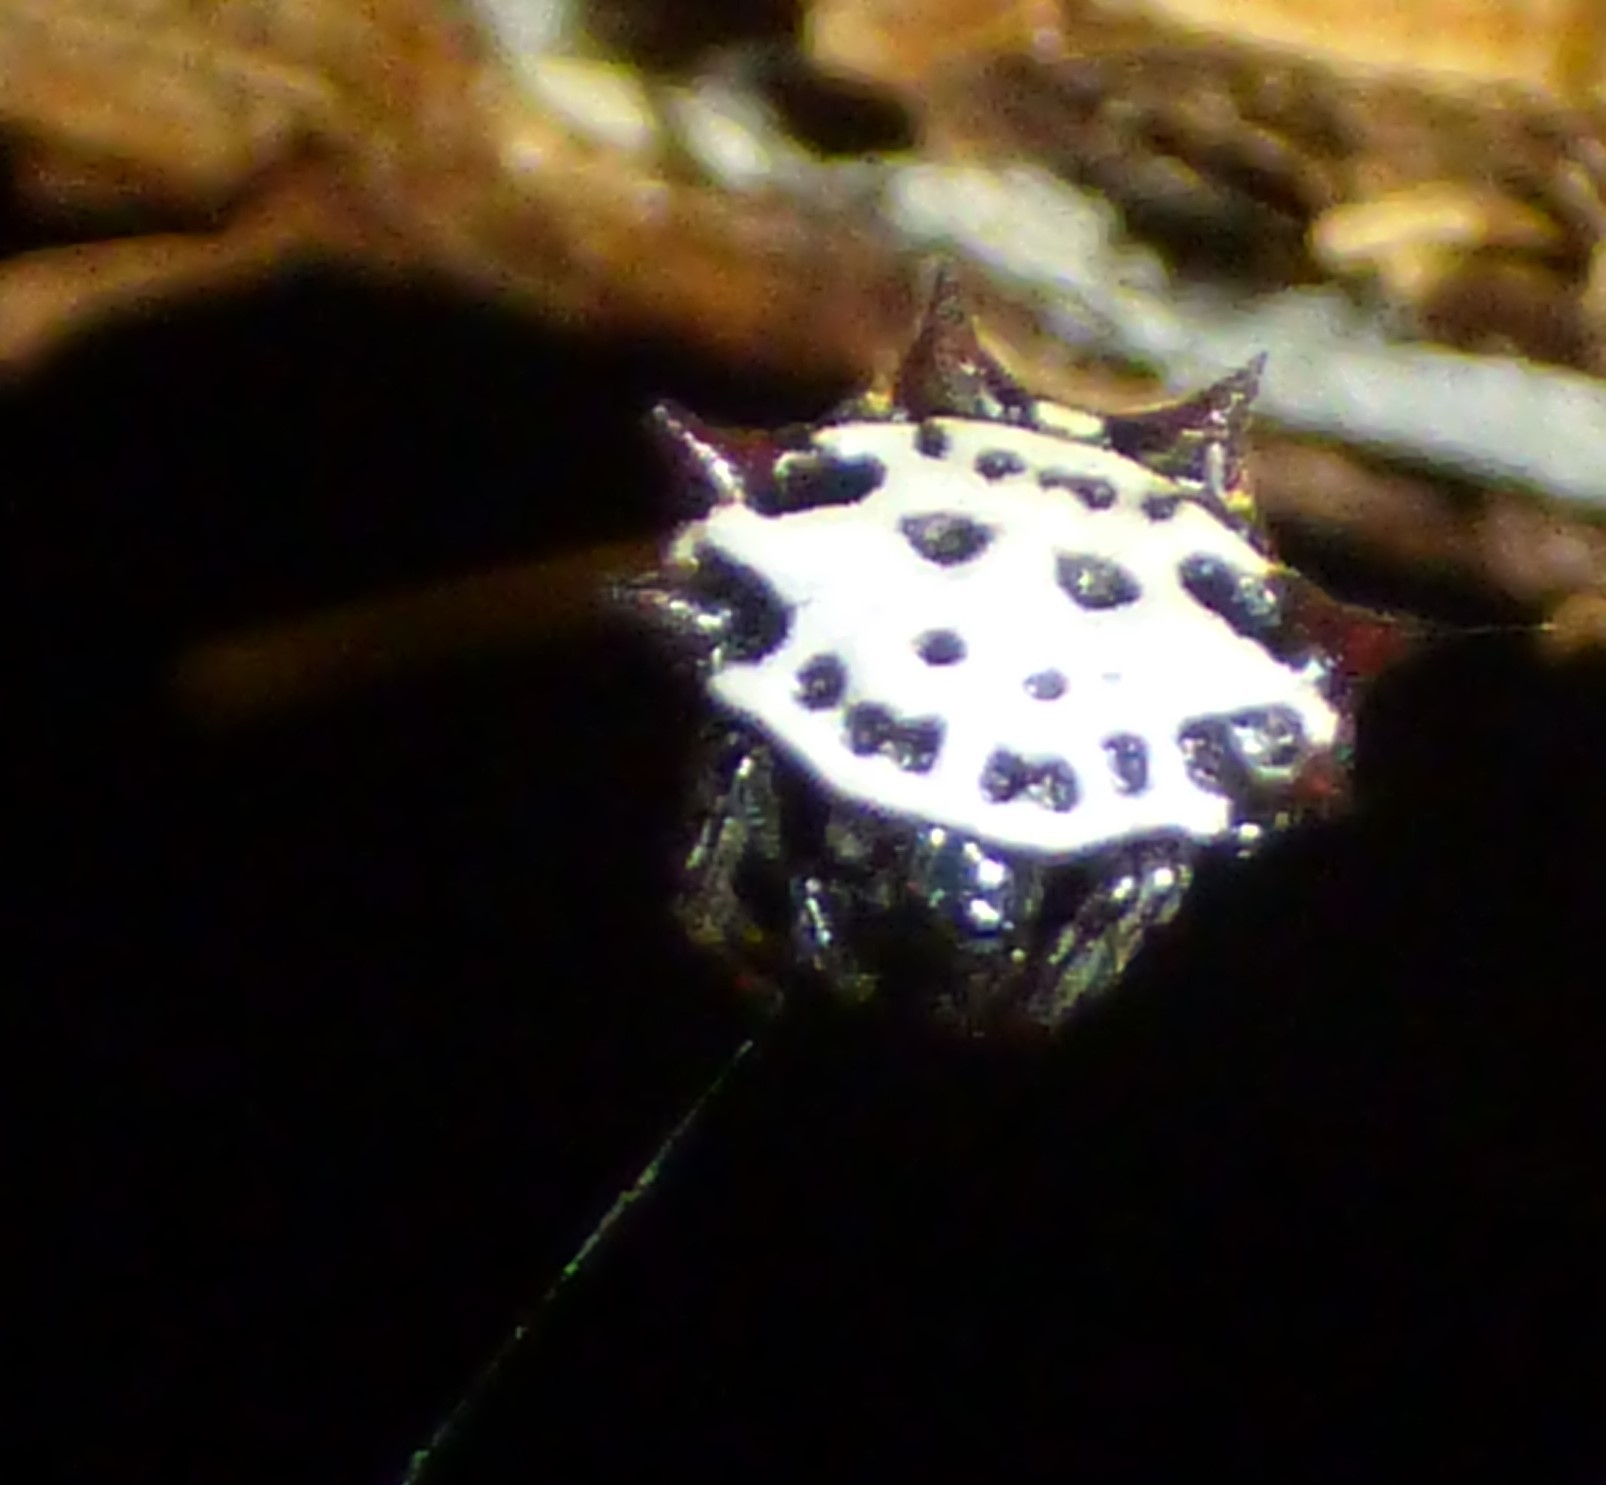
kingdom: Animalia
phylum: Arthropoda
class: Arachnida
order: Araneae
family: Araneidae
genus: Gasteracantha
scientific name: Gasteracantha cancriformis
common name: Orb weavers
